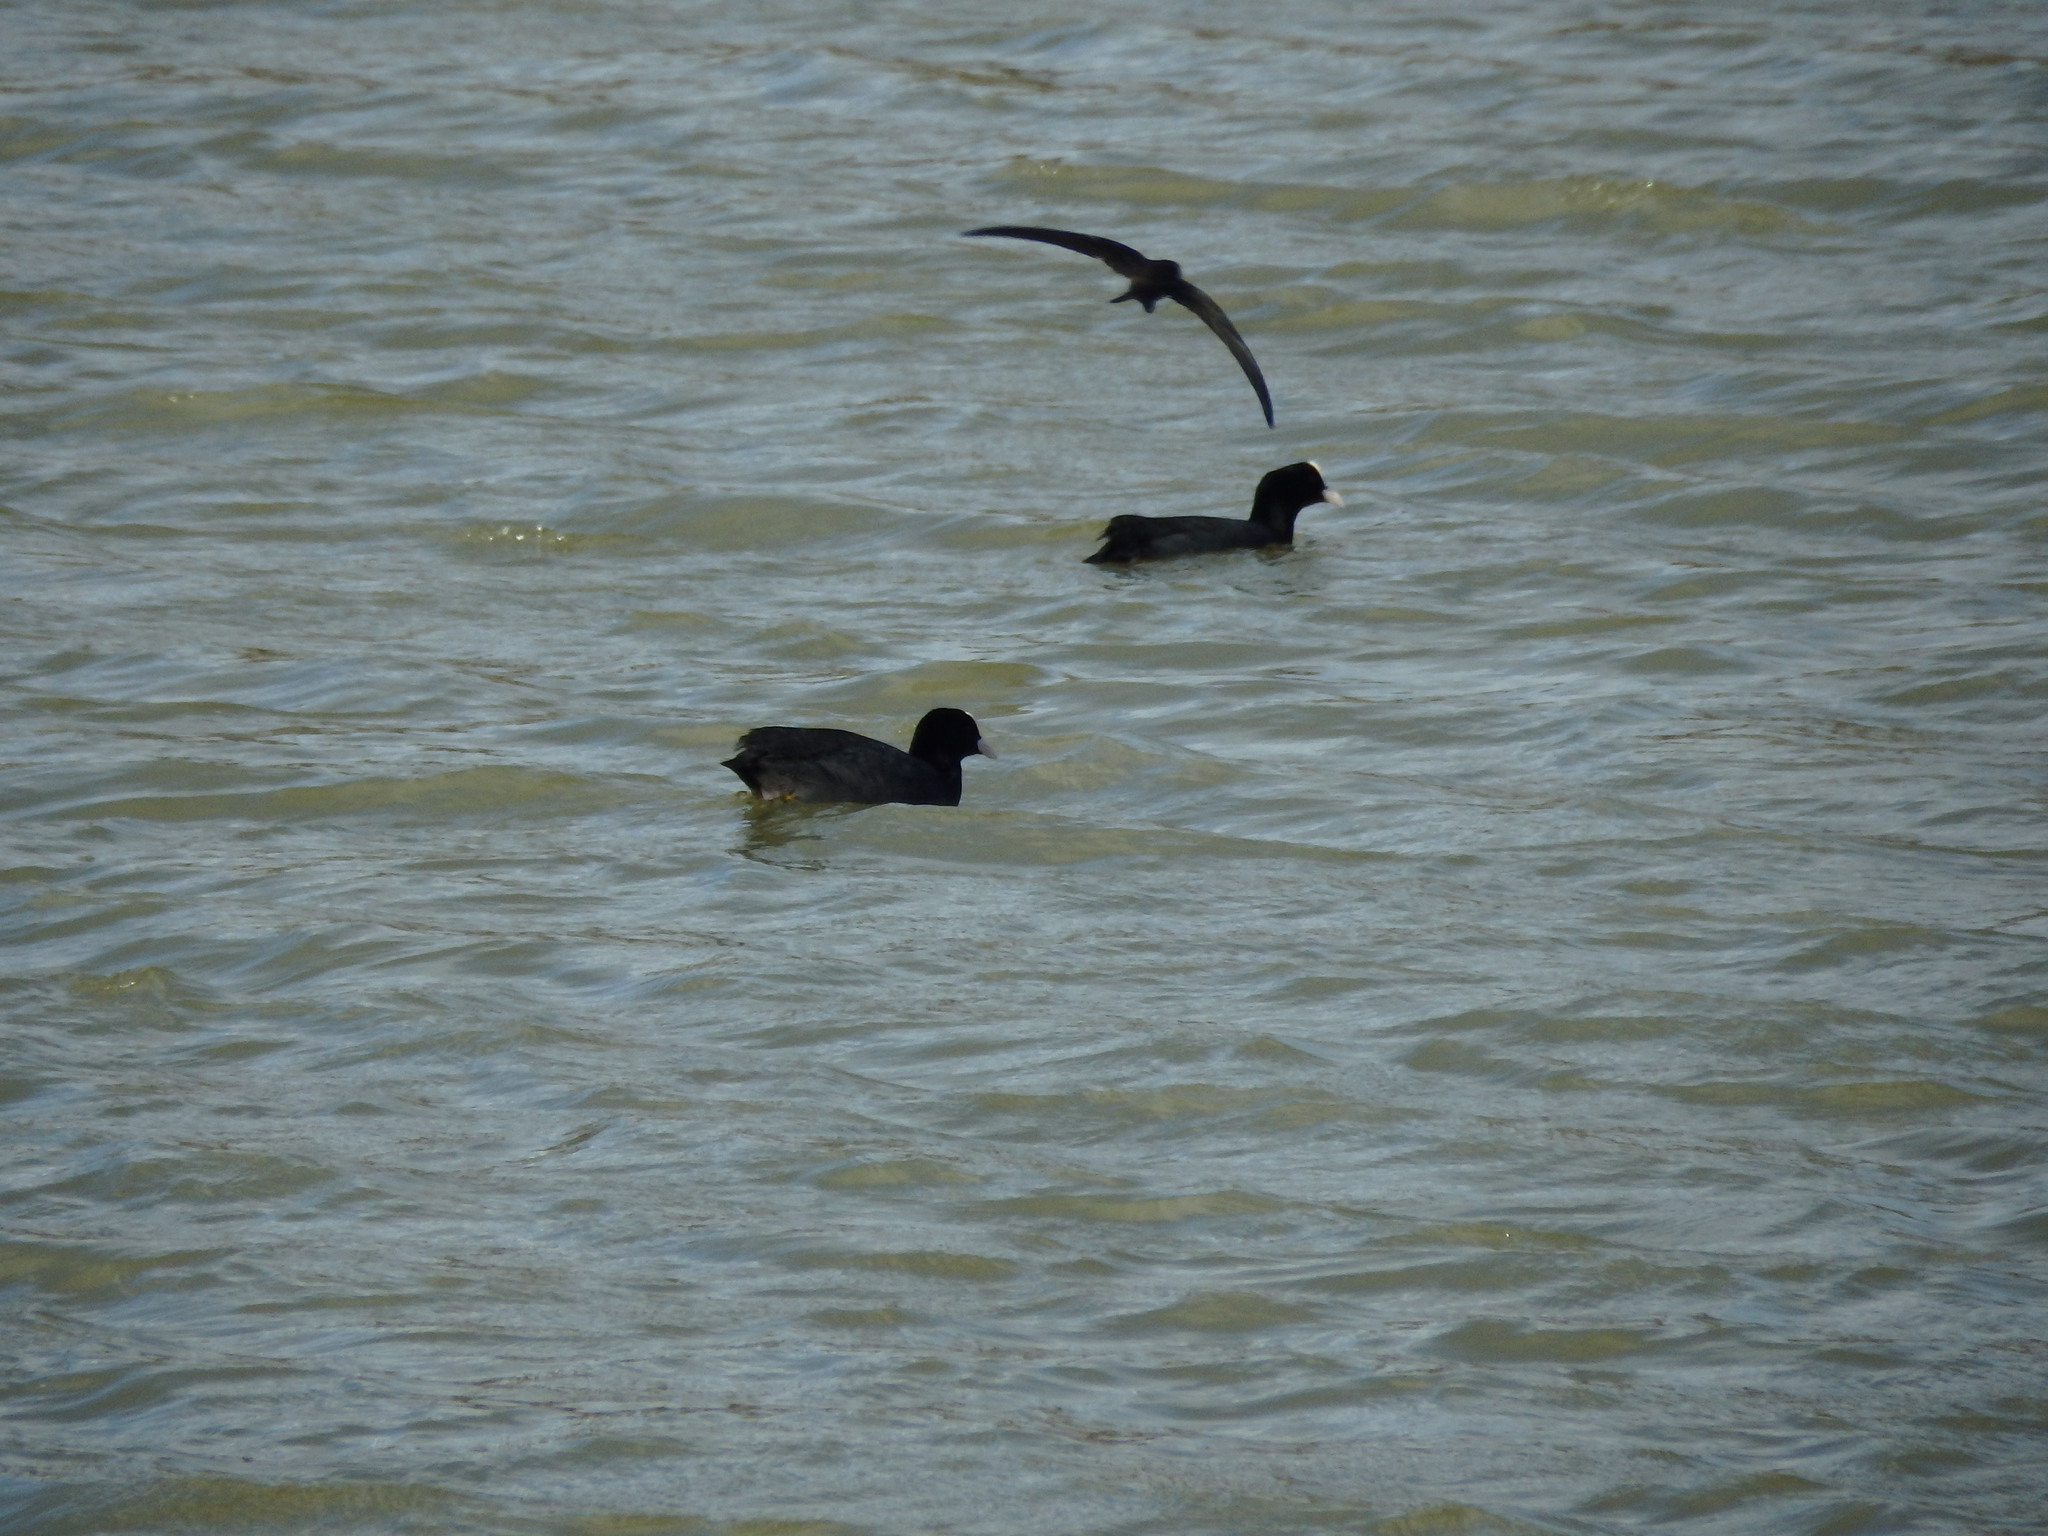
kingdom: Animalia
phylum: Chordata
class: Aves
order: Apodiformes
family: Apodidae
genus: Apus
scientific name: Apus unicolor
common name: Plain swift
